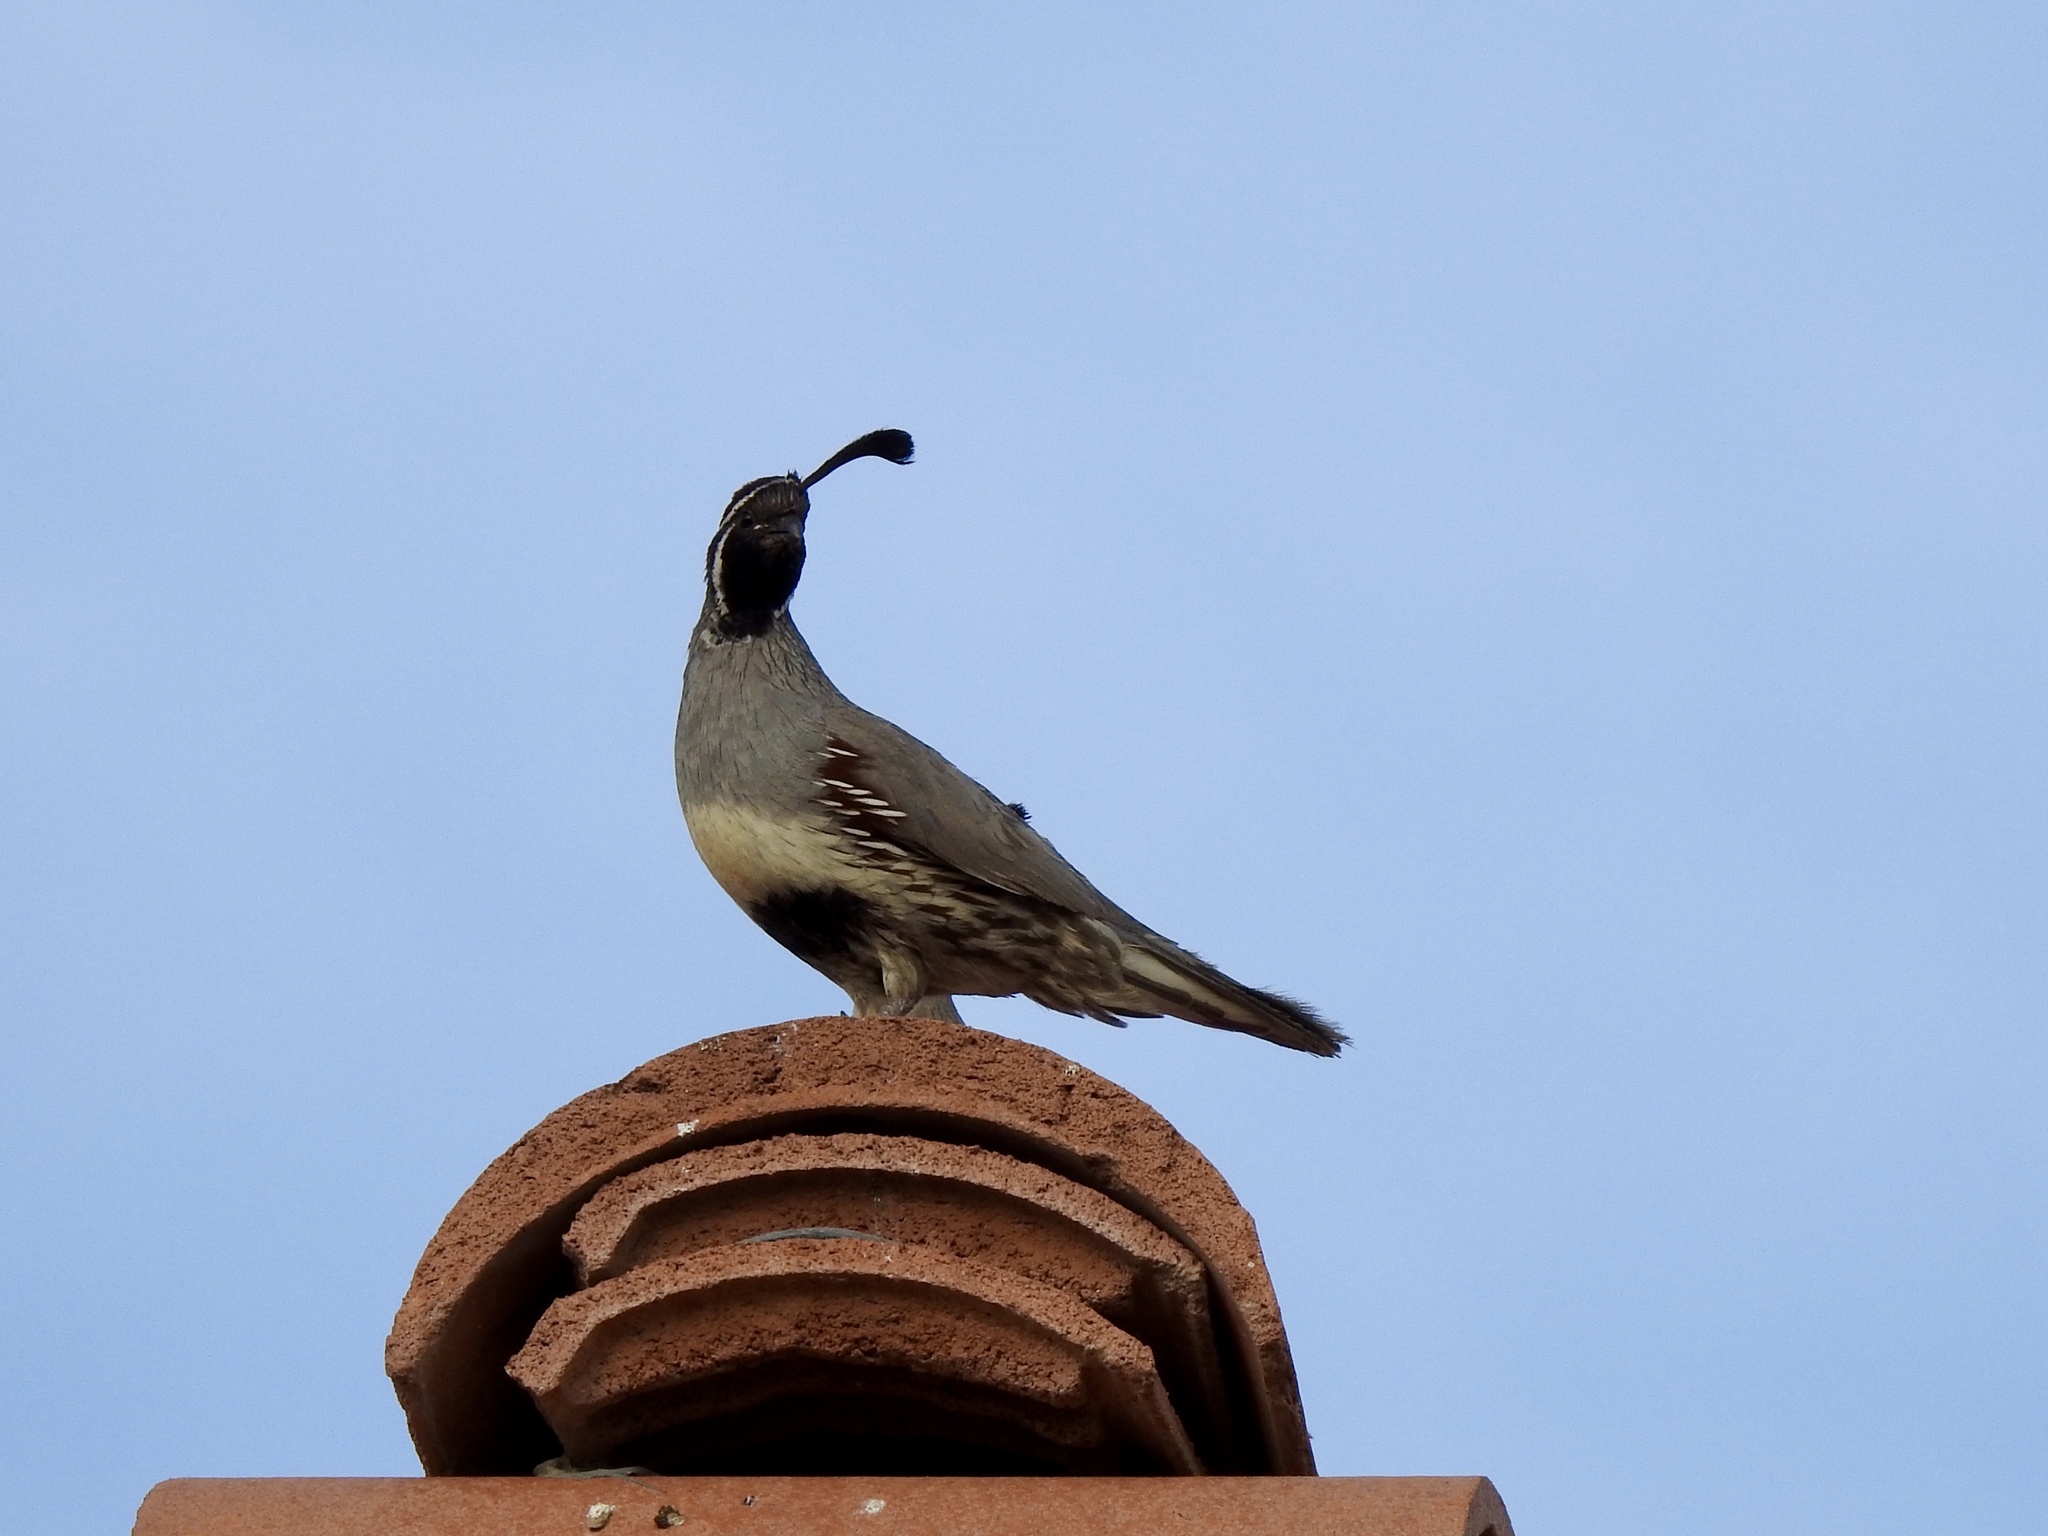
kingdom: Animalia
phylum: Chordata
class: Aves
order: Galliformes
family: Odontophoridae
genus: Callipepla
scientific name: Callipepla gambelii
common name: Gambel's quail
